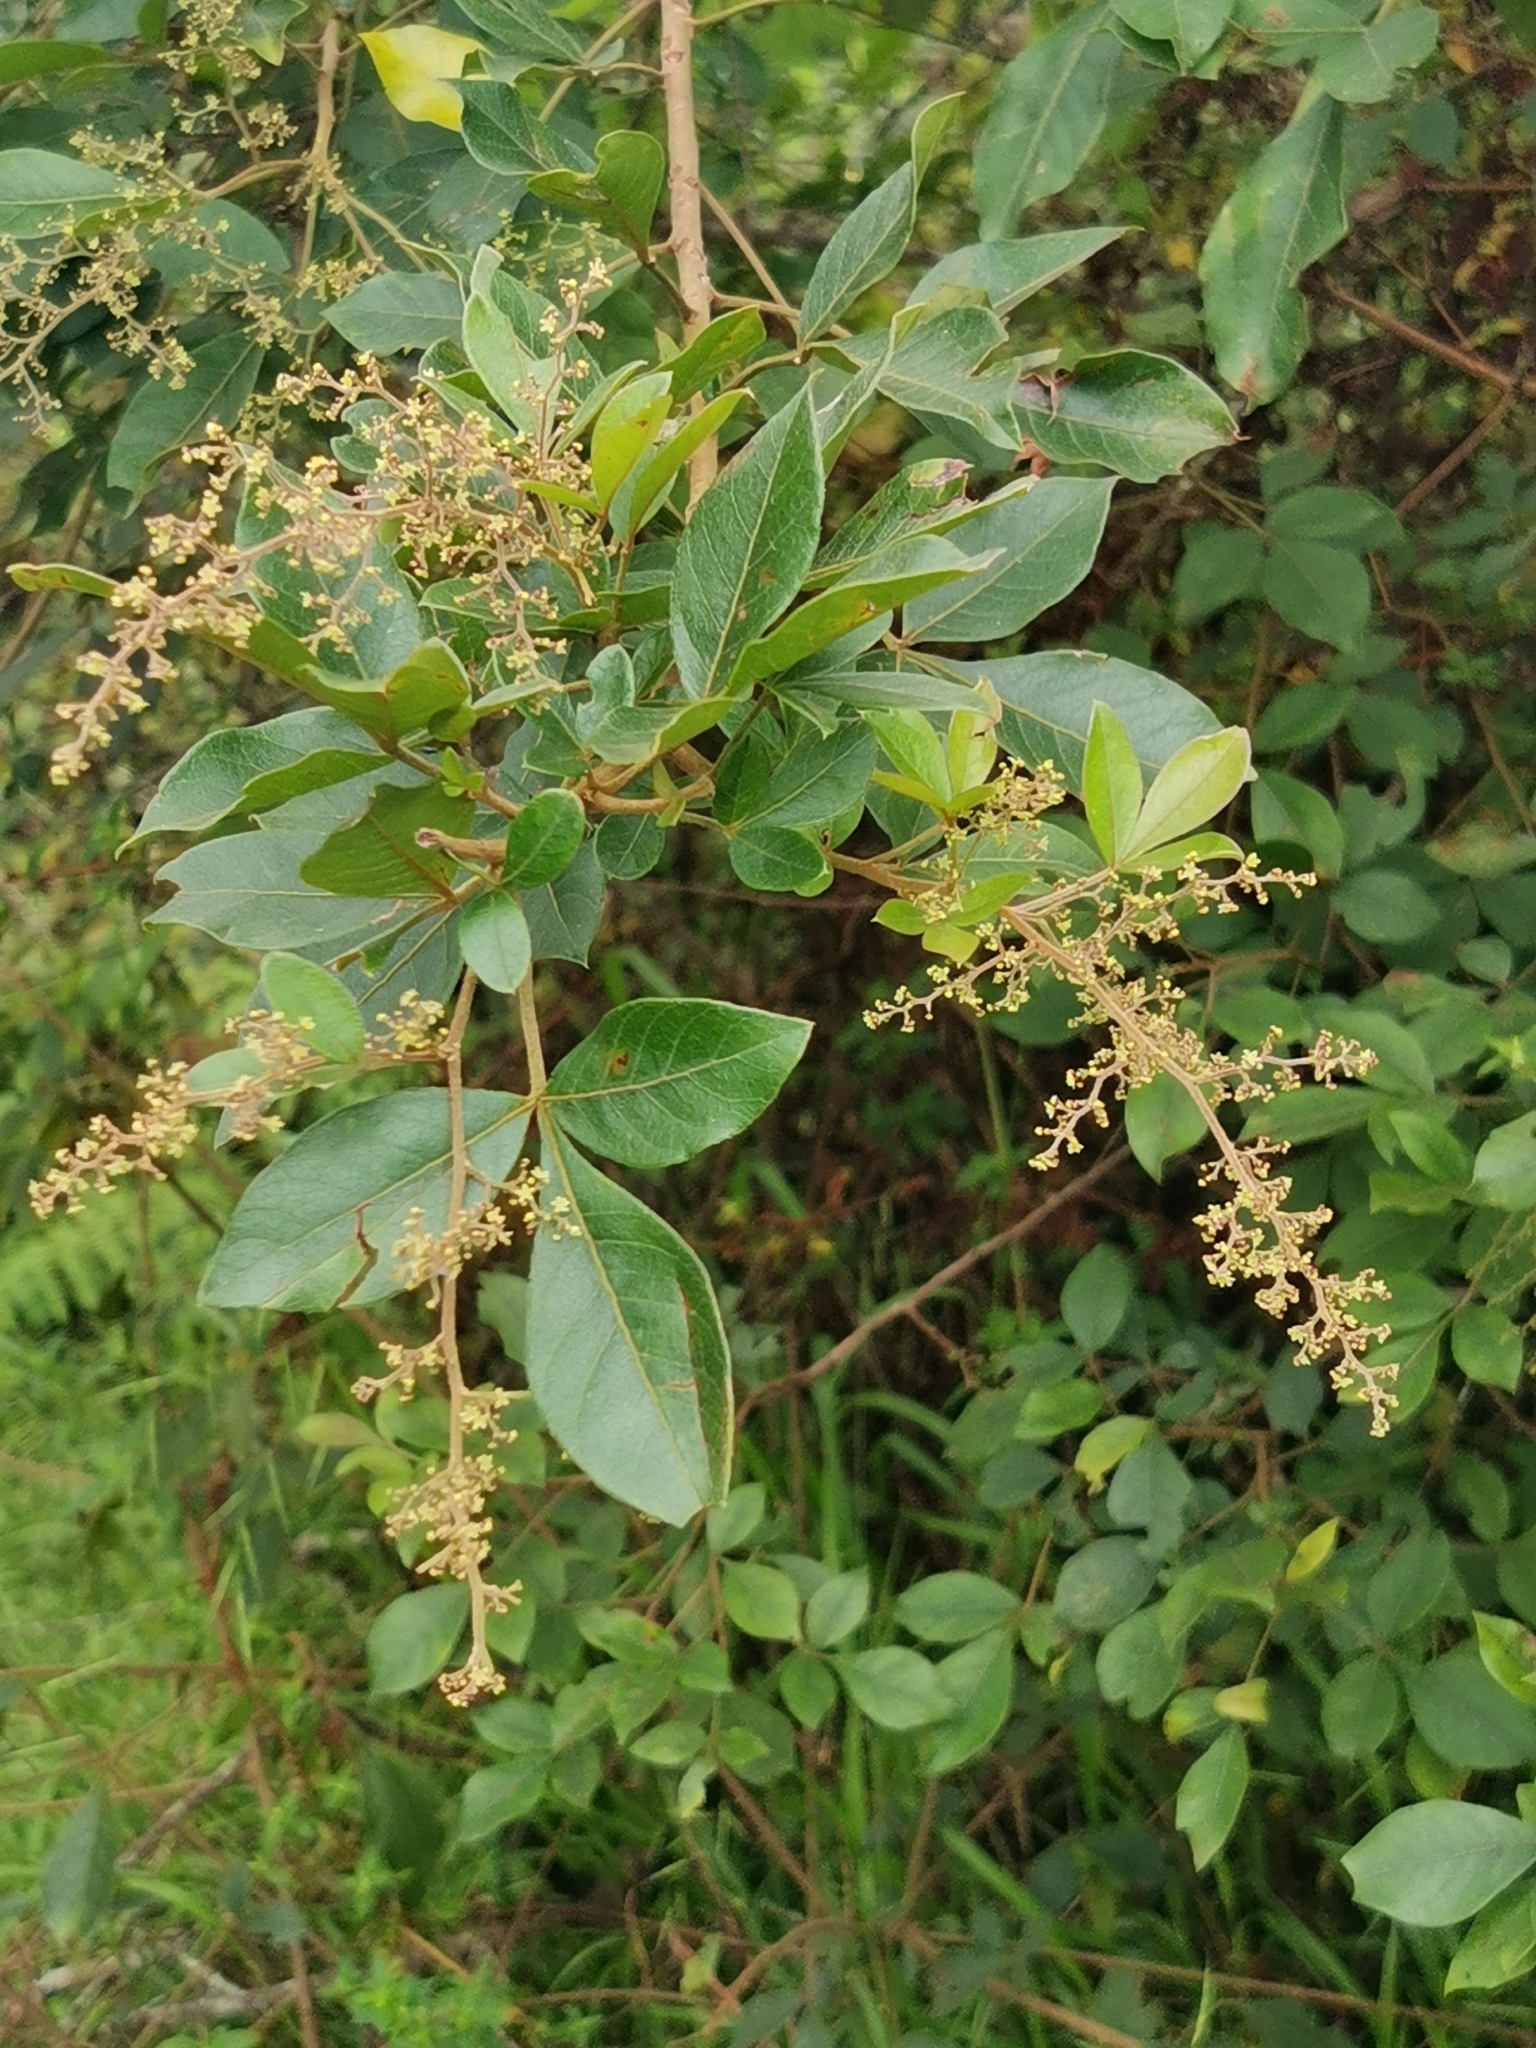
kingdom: Plantae
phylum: Tracheophyta
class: Magnoliopsida
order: Sapindales
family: Anacardiaceae
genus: Searsia
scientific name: Searsia pyroides
